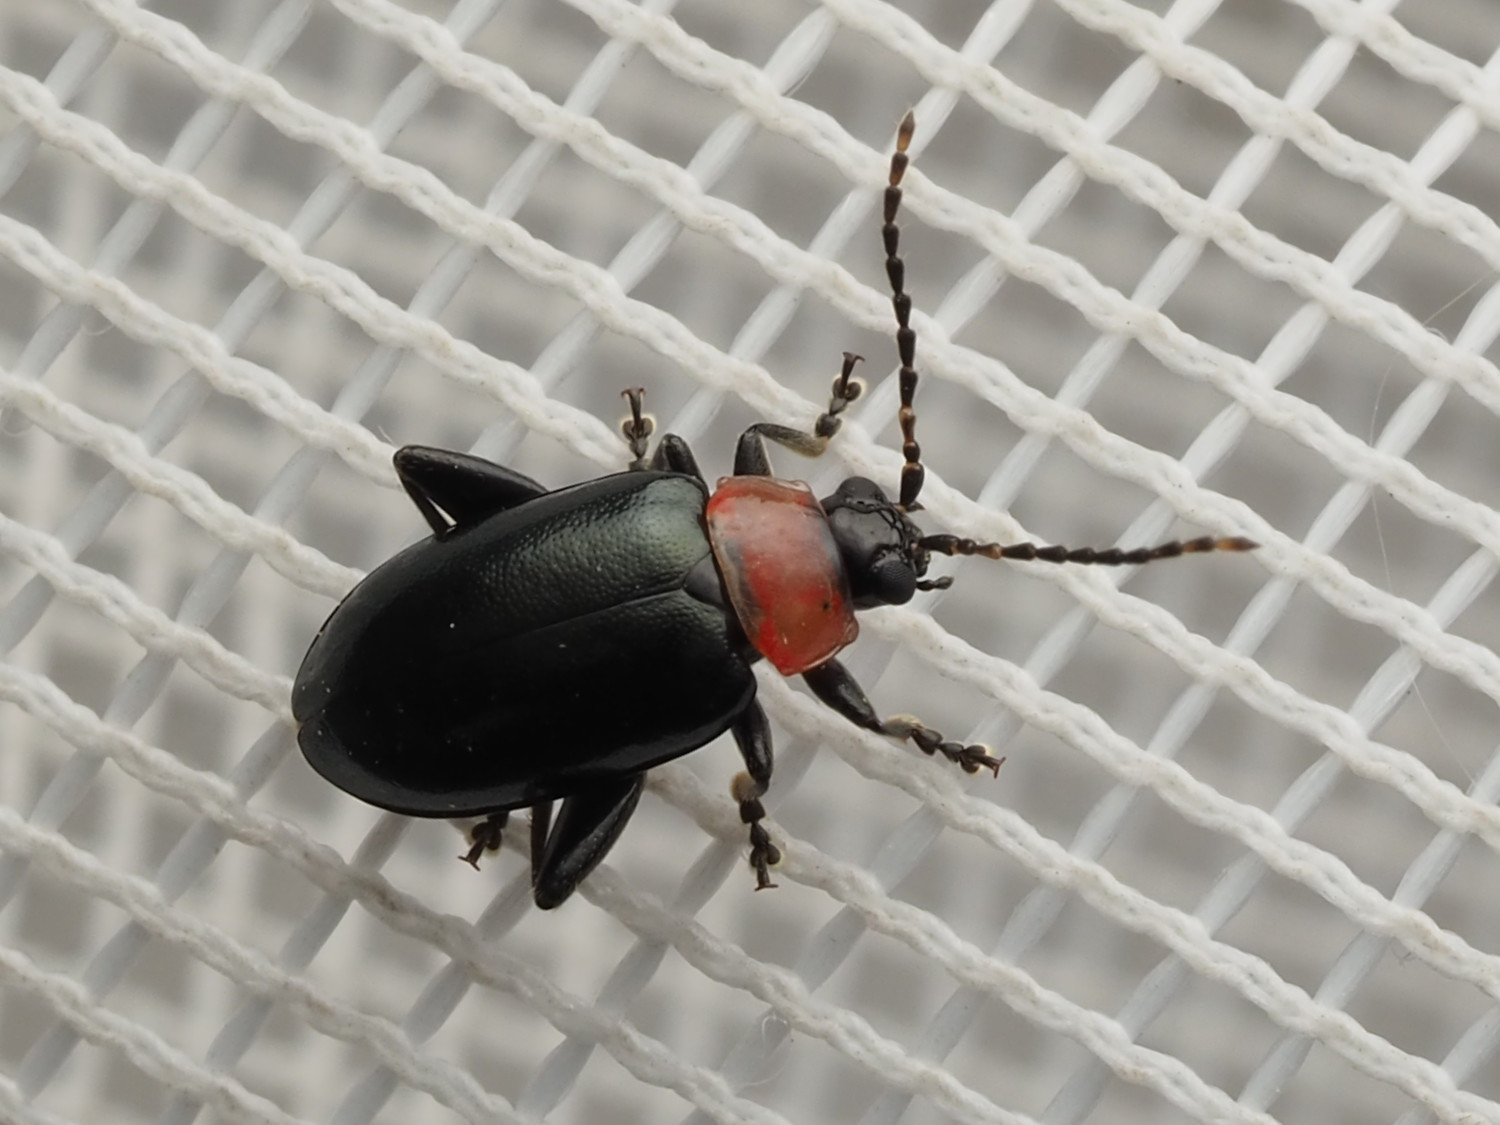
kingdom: Animalia
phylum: Arthropoda
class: Insecta
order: Coleoptera
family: Chrysomelidae
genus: Disonycha
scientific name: Disonycha xanthomelas
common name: Spinach flea beetle
